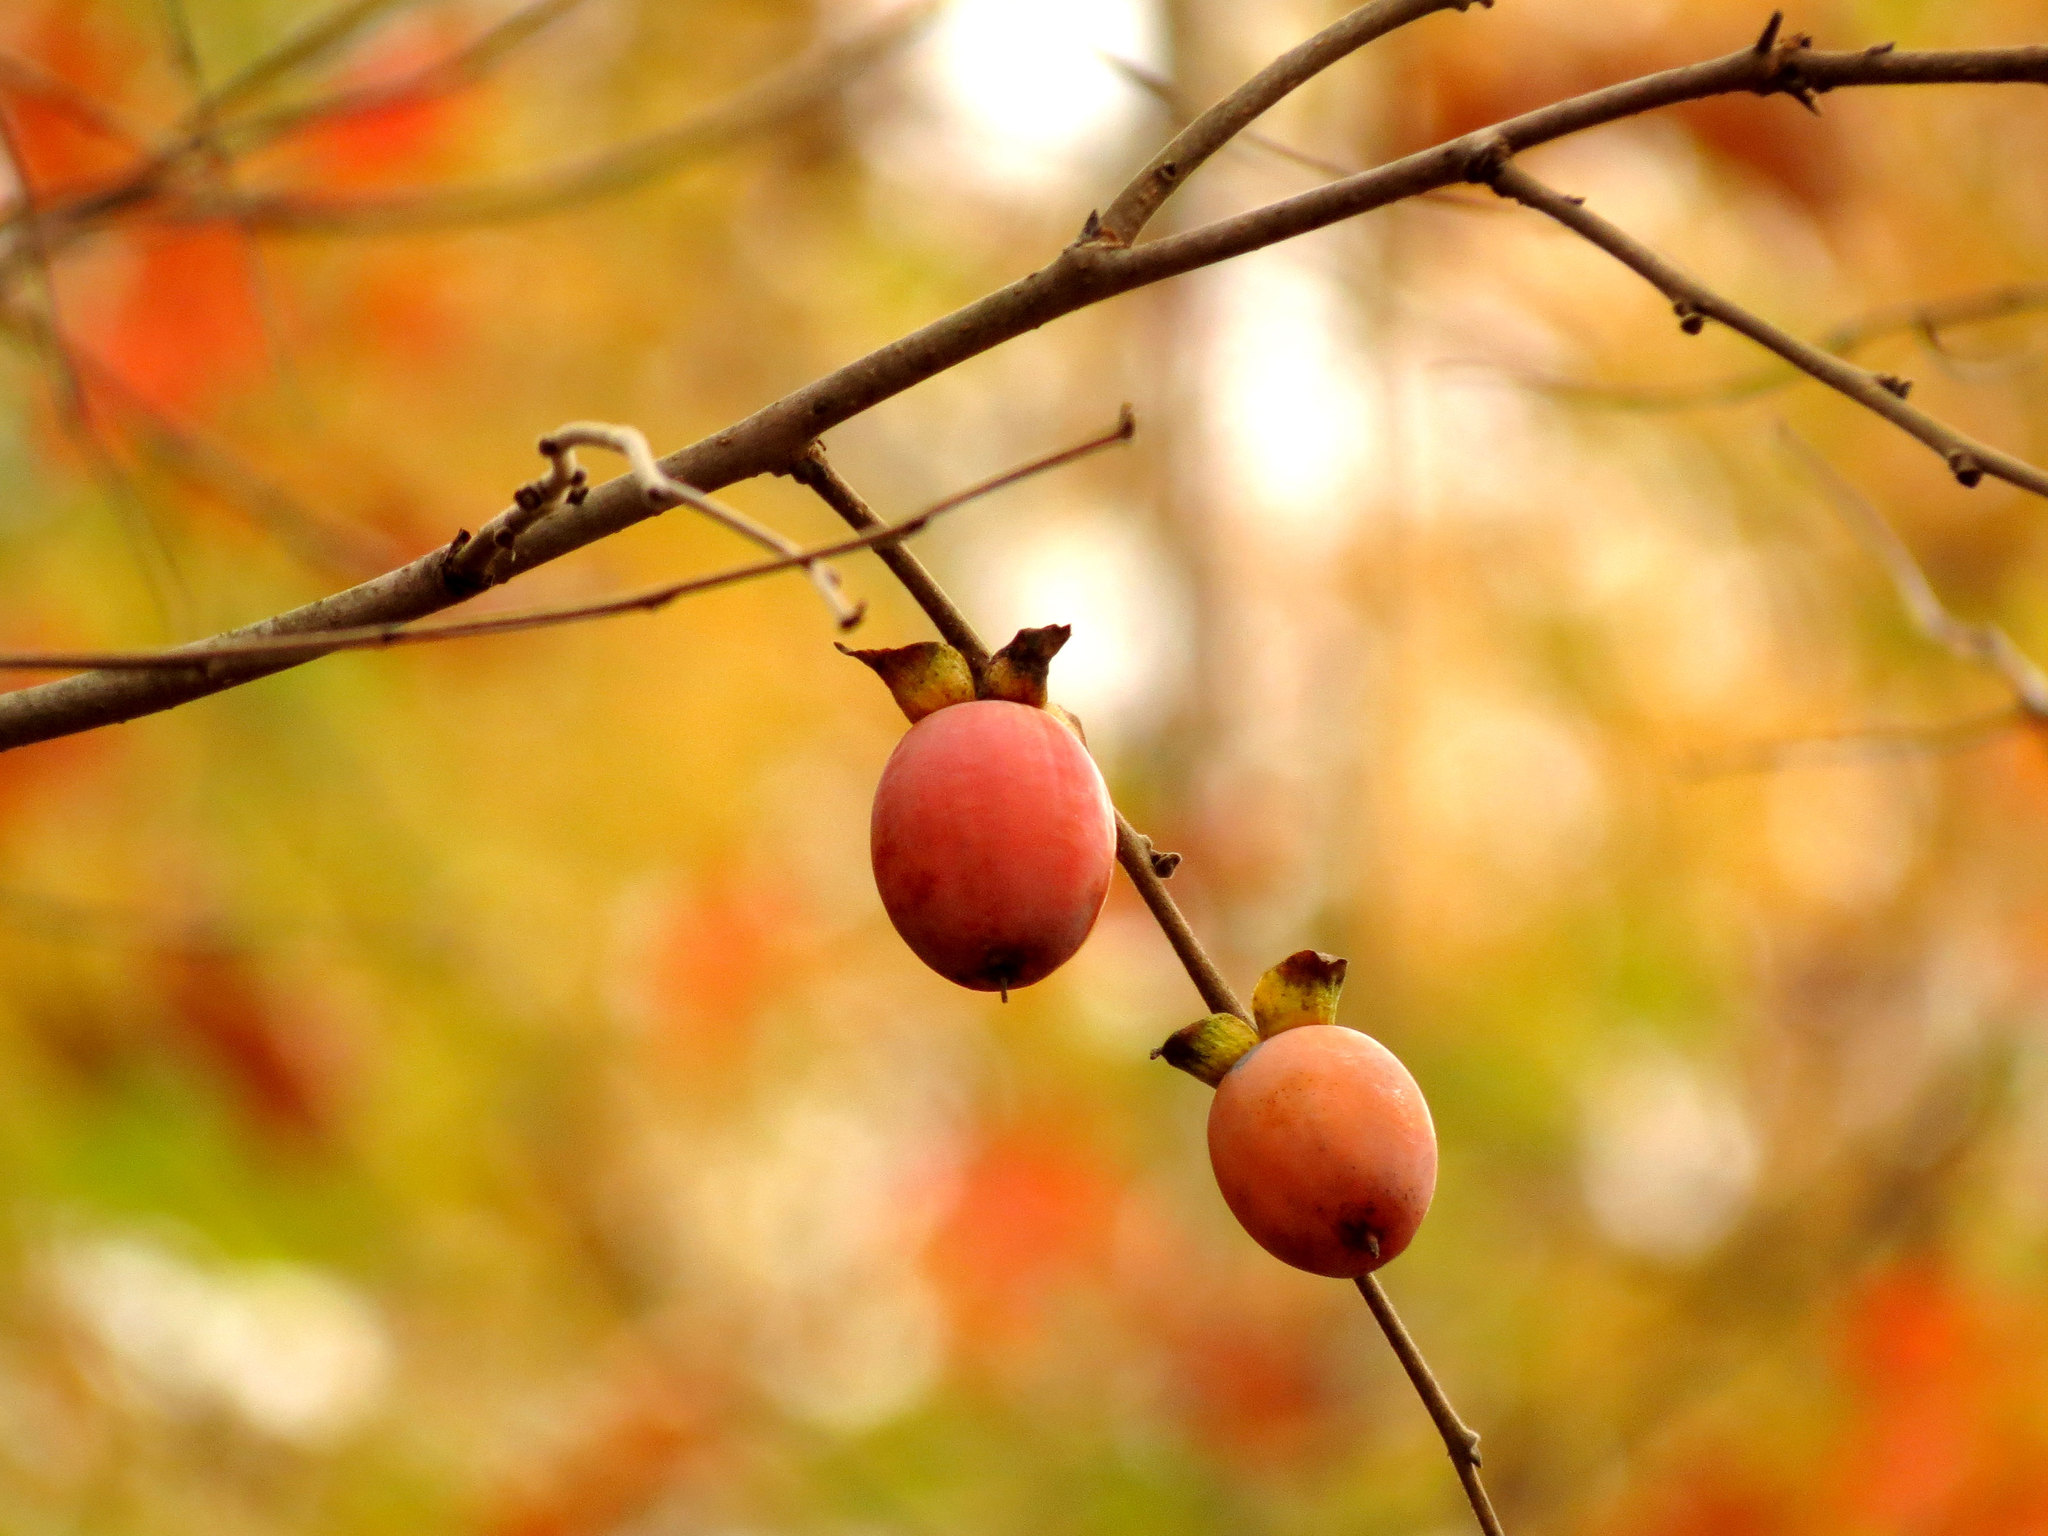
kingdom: Plantae
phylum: Tracheophyta
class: Magnoliopsida
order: Ericales
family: Ebenaceae
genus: Diospyros
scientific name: Diospyros virginiana
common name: Persimmon
